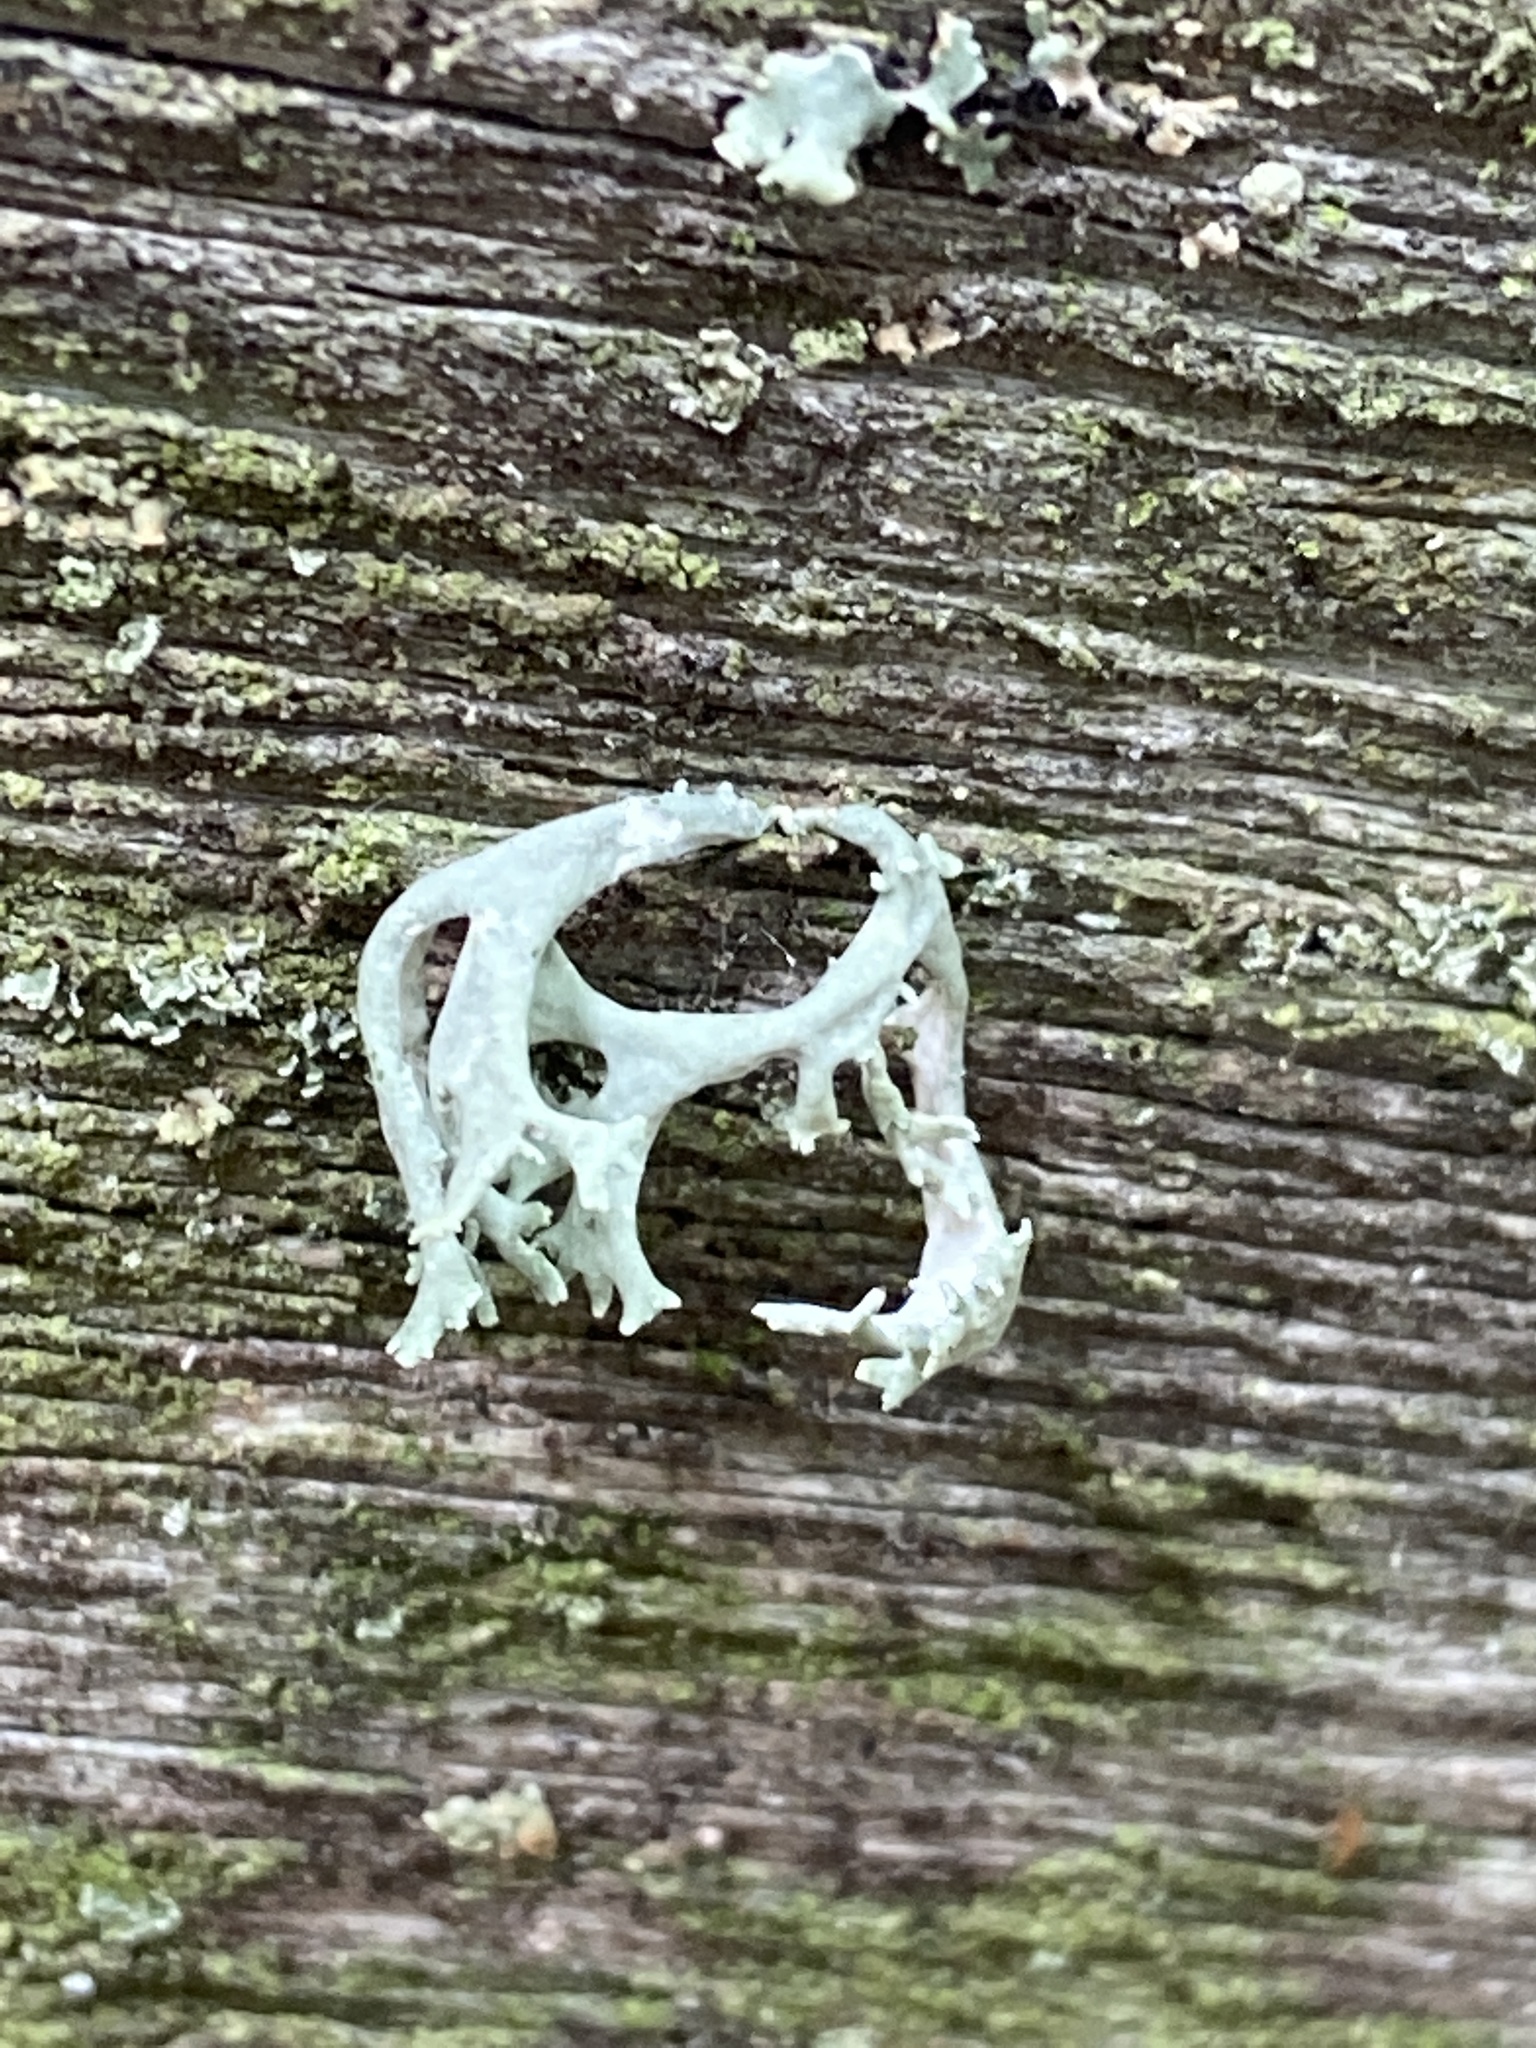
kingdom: Fungi
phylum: Ascomycota
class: Lecanoromycetes
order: Lecanorales
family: Parmeliaceae
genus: Evernia
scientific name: Evernia prunastri
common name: Oak moss
